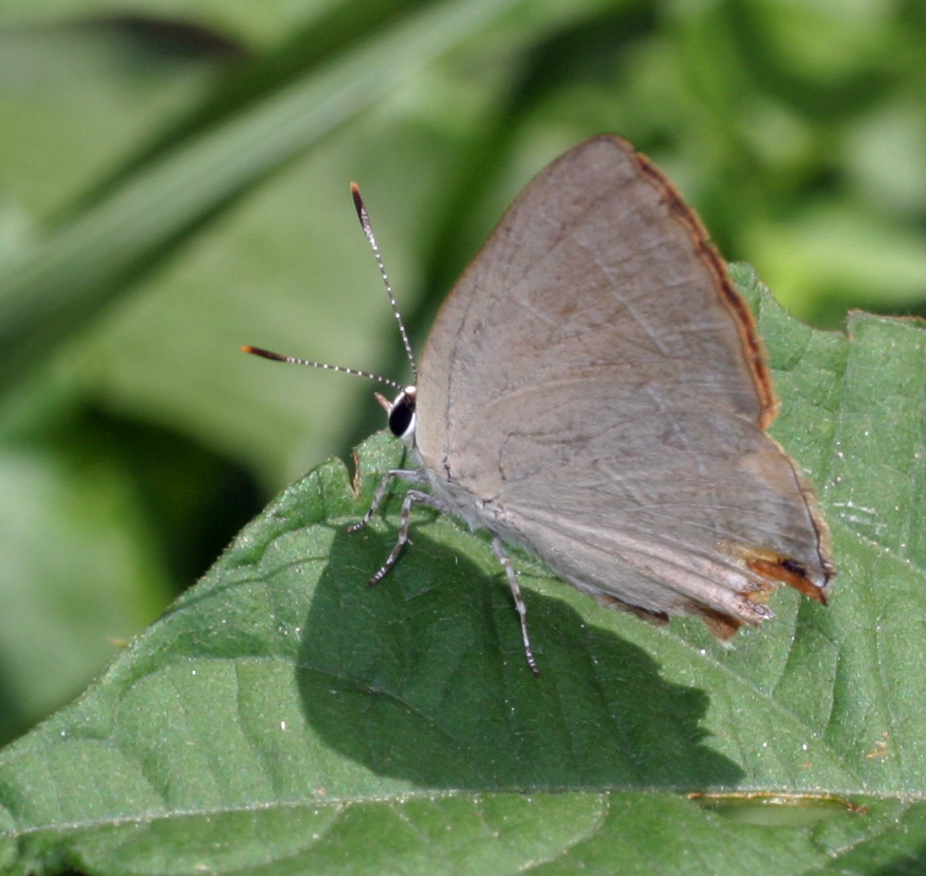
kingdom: Animalia
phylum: Arthropoda
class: Insecta
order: Lepidoptera
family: Lycaenidae
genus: Rapala
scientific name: Rapala iarbus
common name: Common red flash
